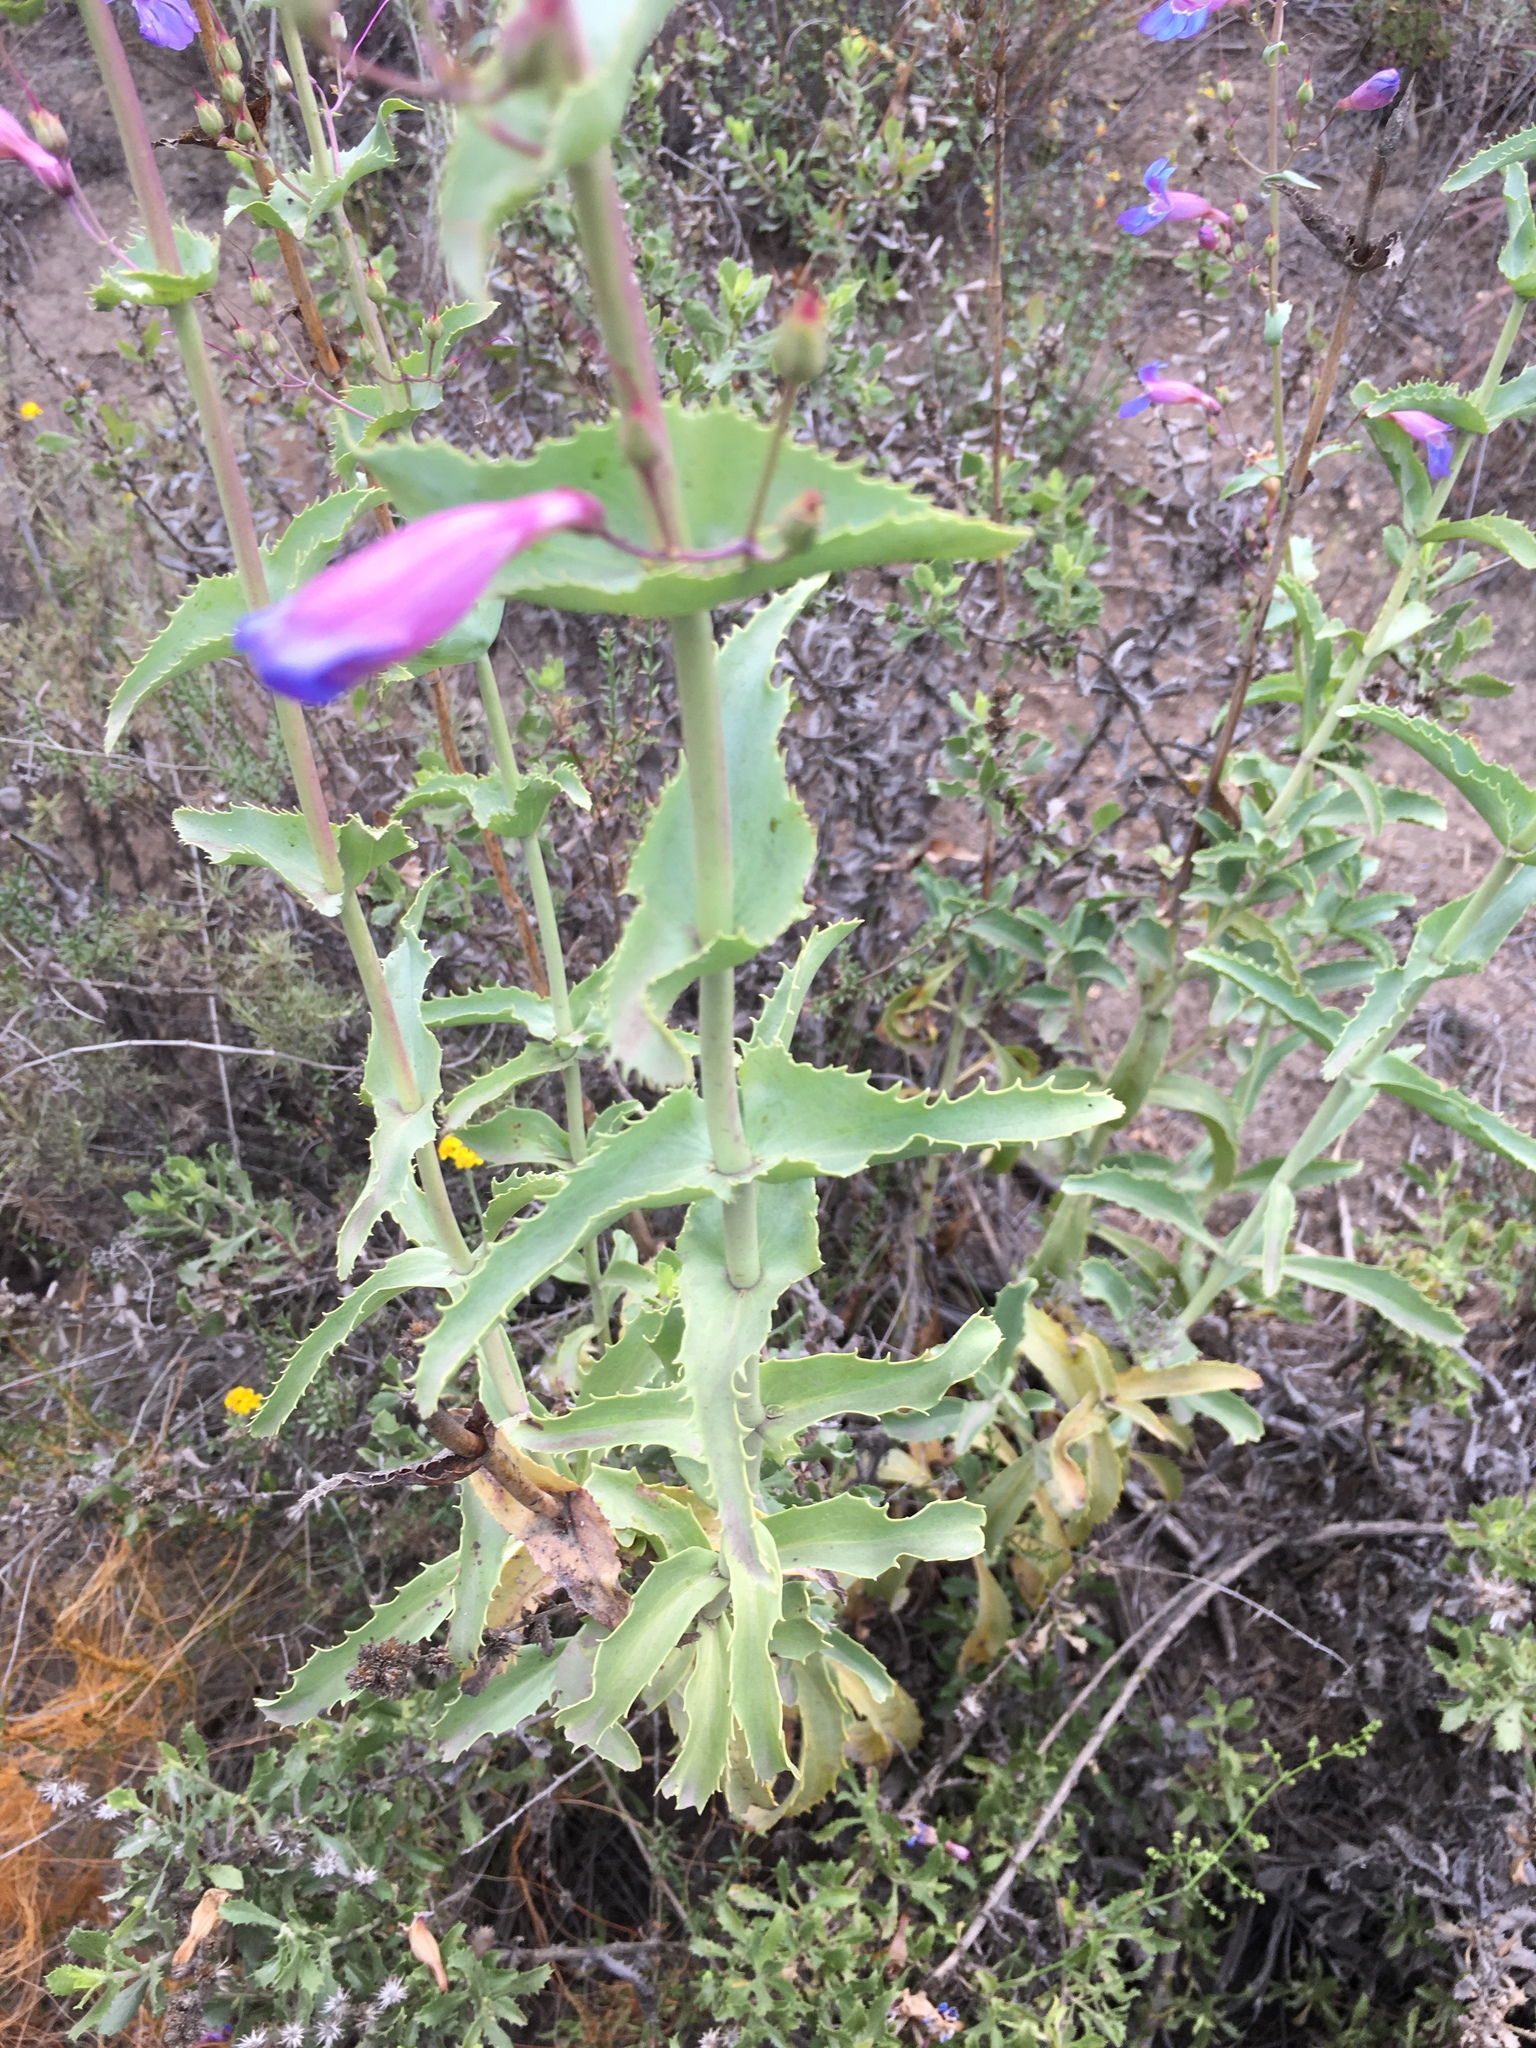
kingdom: Plantae
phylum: Tracheophyta
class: Magnoliopsida
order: Lamiales
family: Plantaginaceae
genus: Penstemon
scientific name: Penstemon spectabilis
